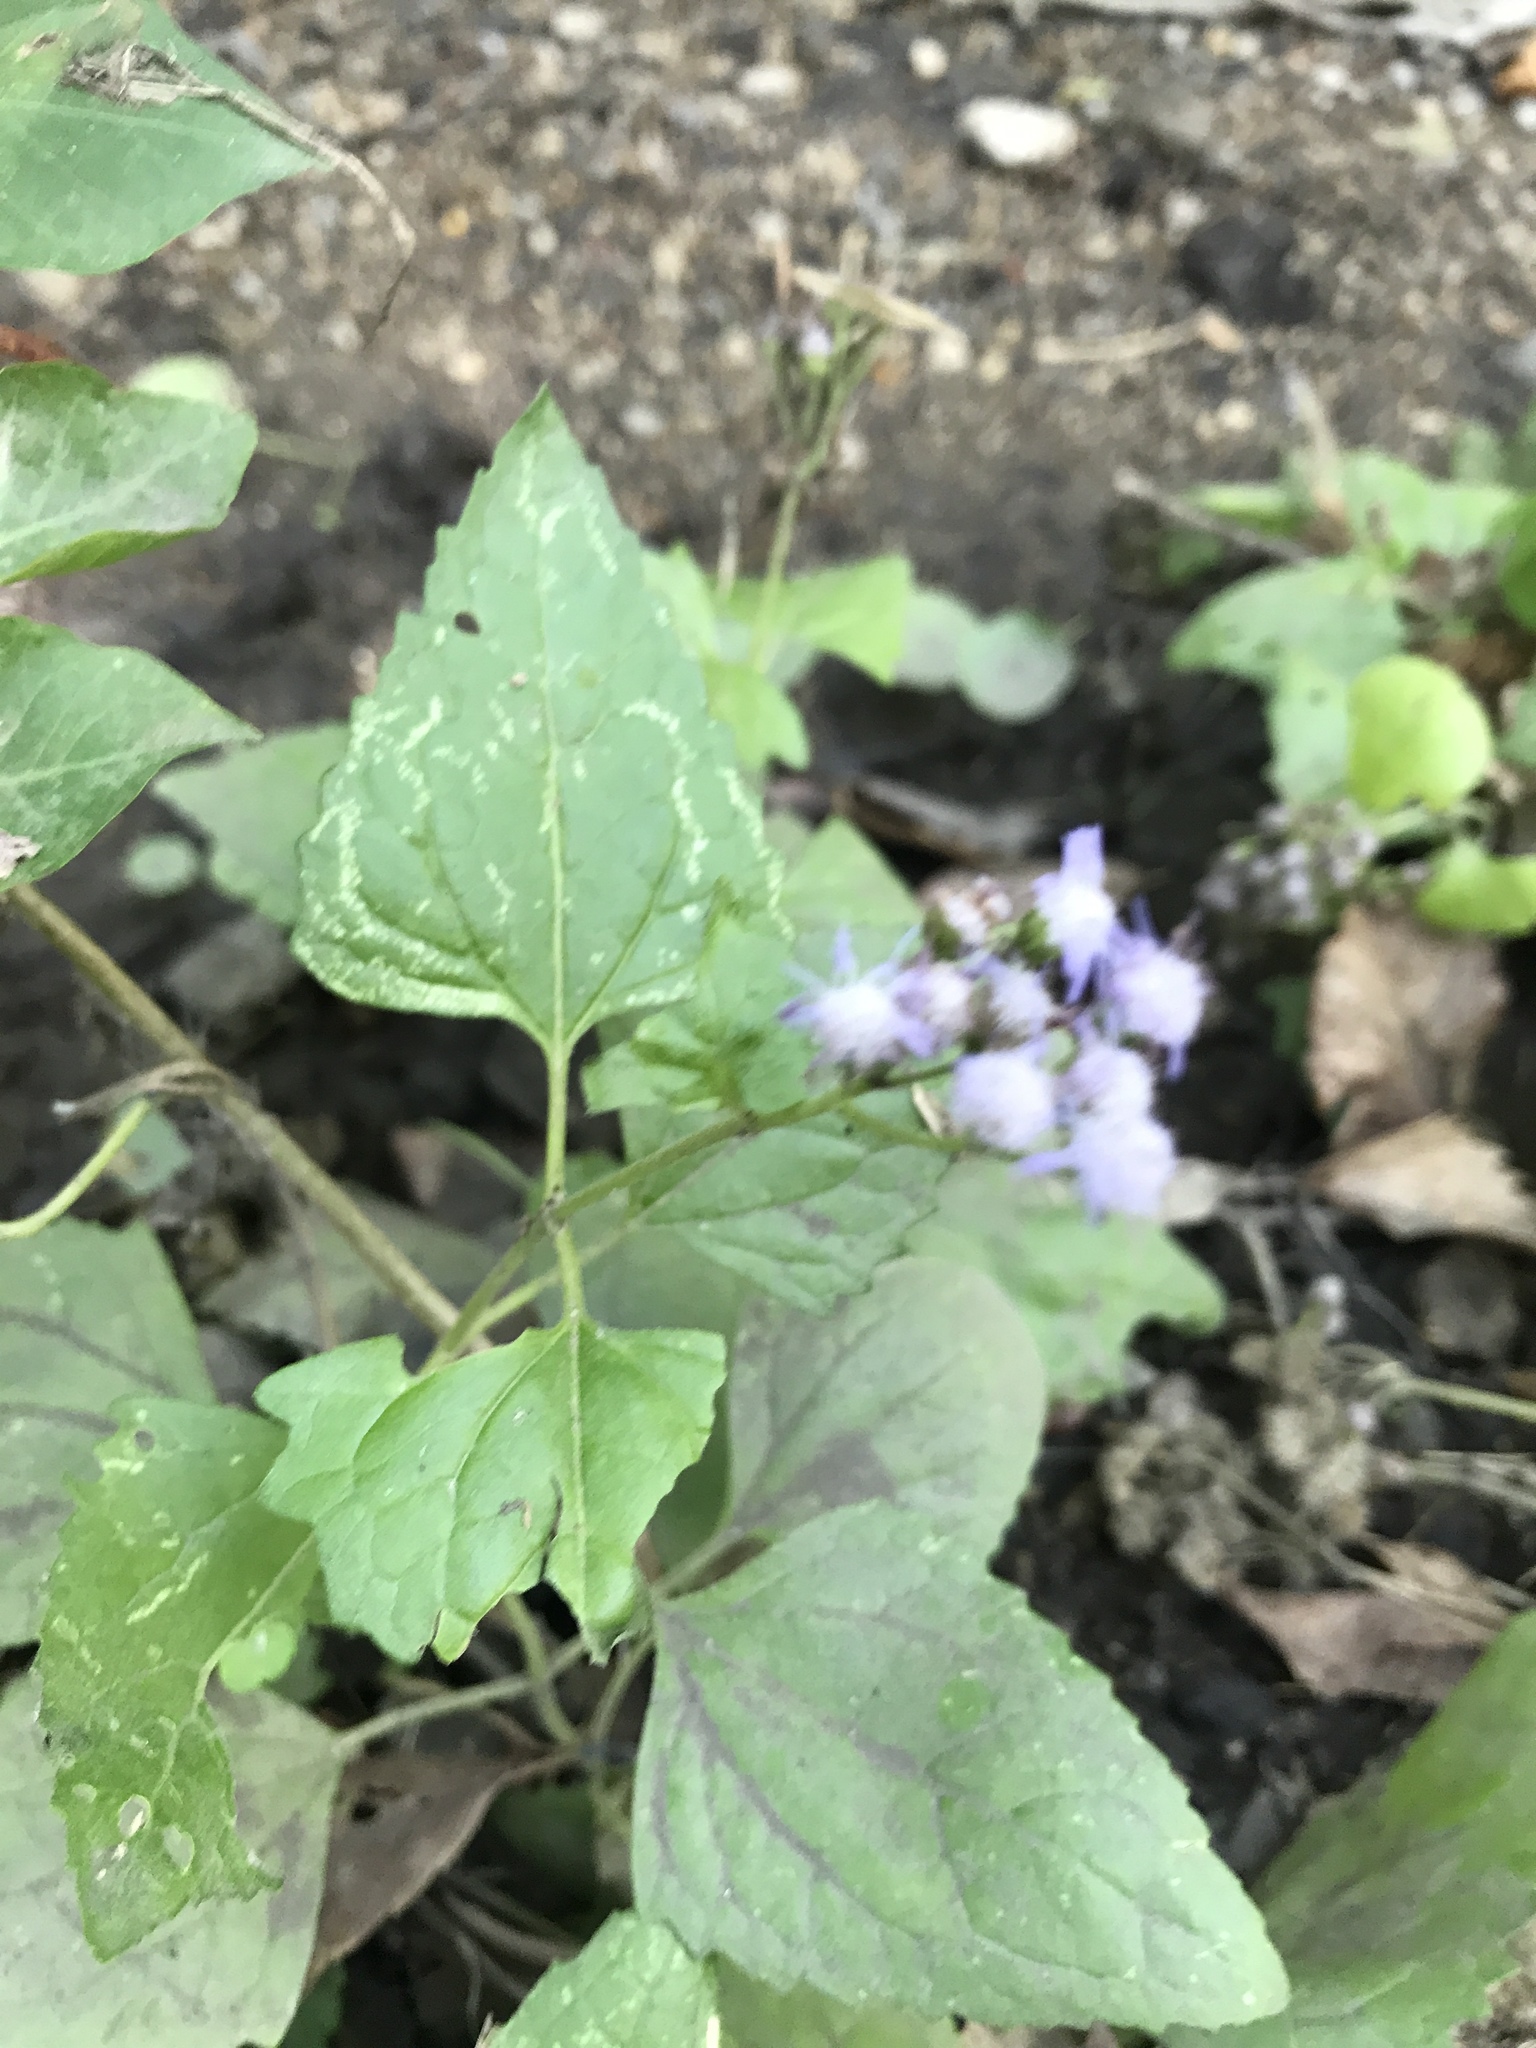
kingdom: Plantae
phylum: Tracheophyta
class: Magnoliopsida
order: Asterales
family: Asteraceae
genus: Conoclinium
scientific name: Conoclinium coelestinum
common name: Blue mistflower
